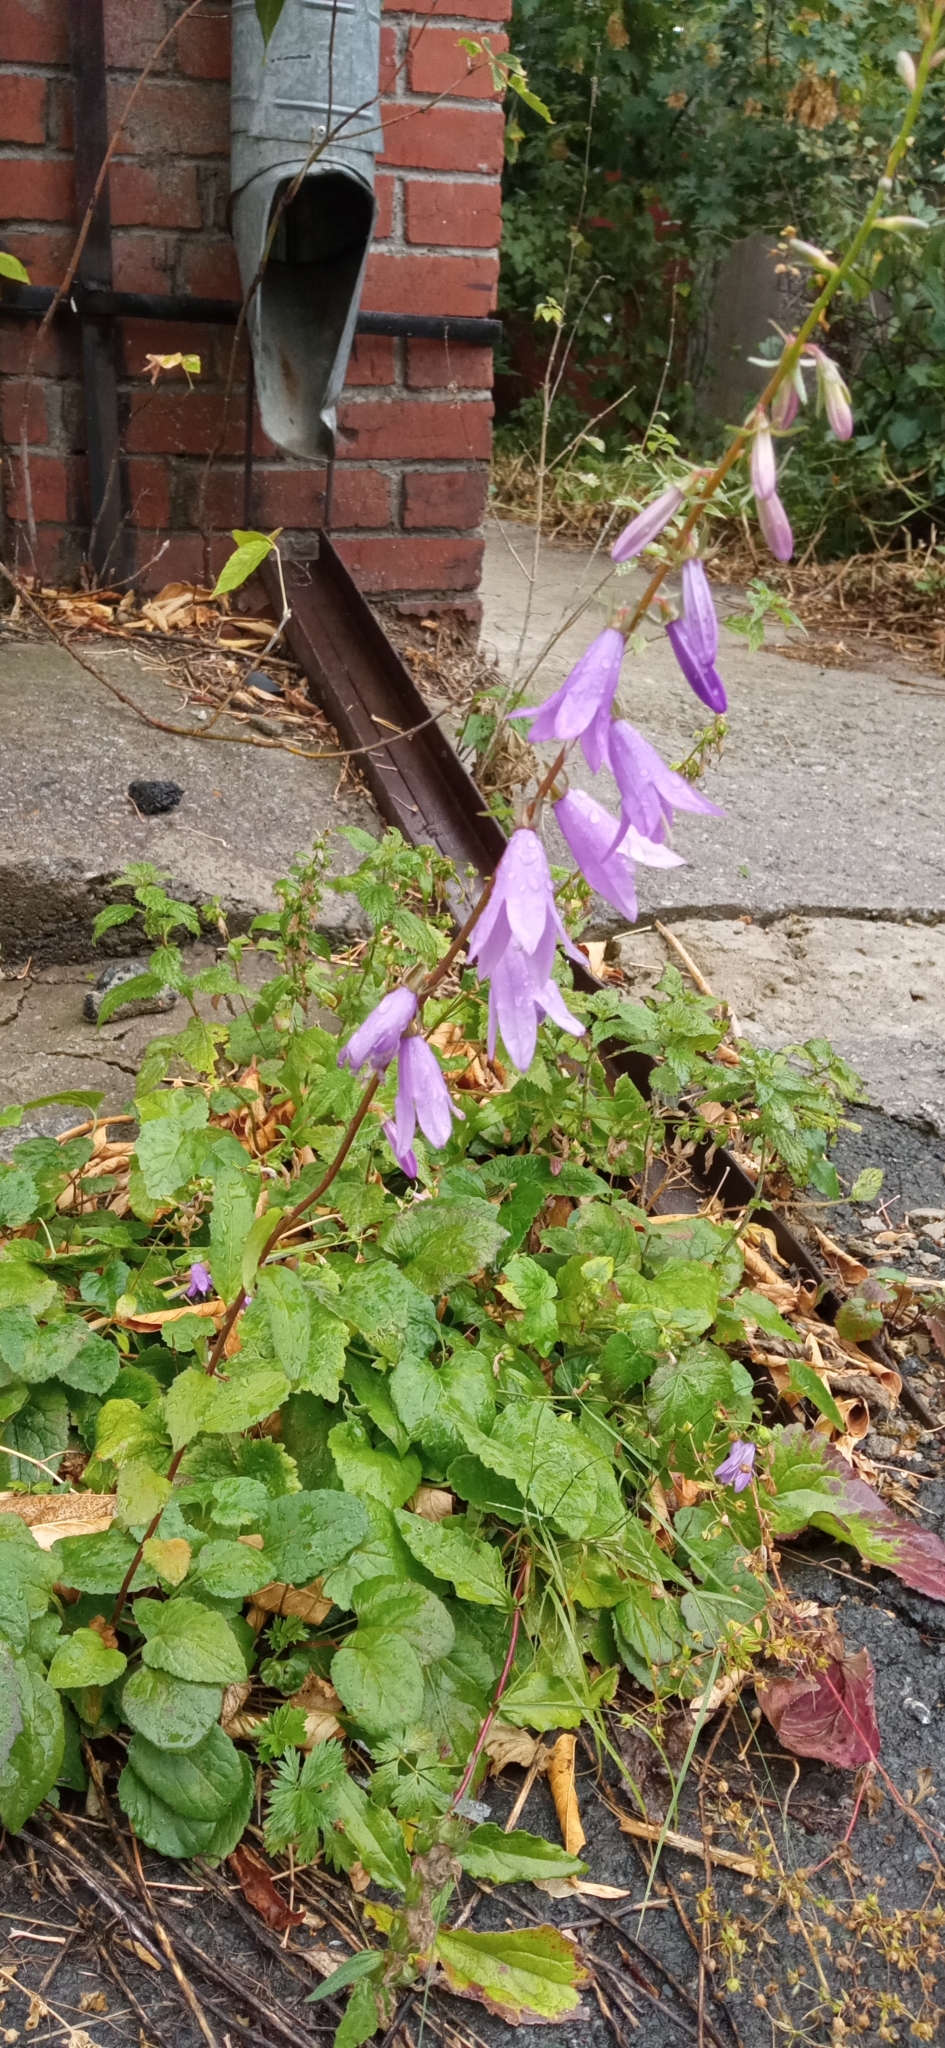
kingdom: Plantae
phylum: Tracheophyta
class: Magnoliopsida
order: Asterales
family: Campanulaceae
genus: Campanula
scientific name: Campanula rapunculoides
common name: Creeping bellflower
